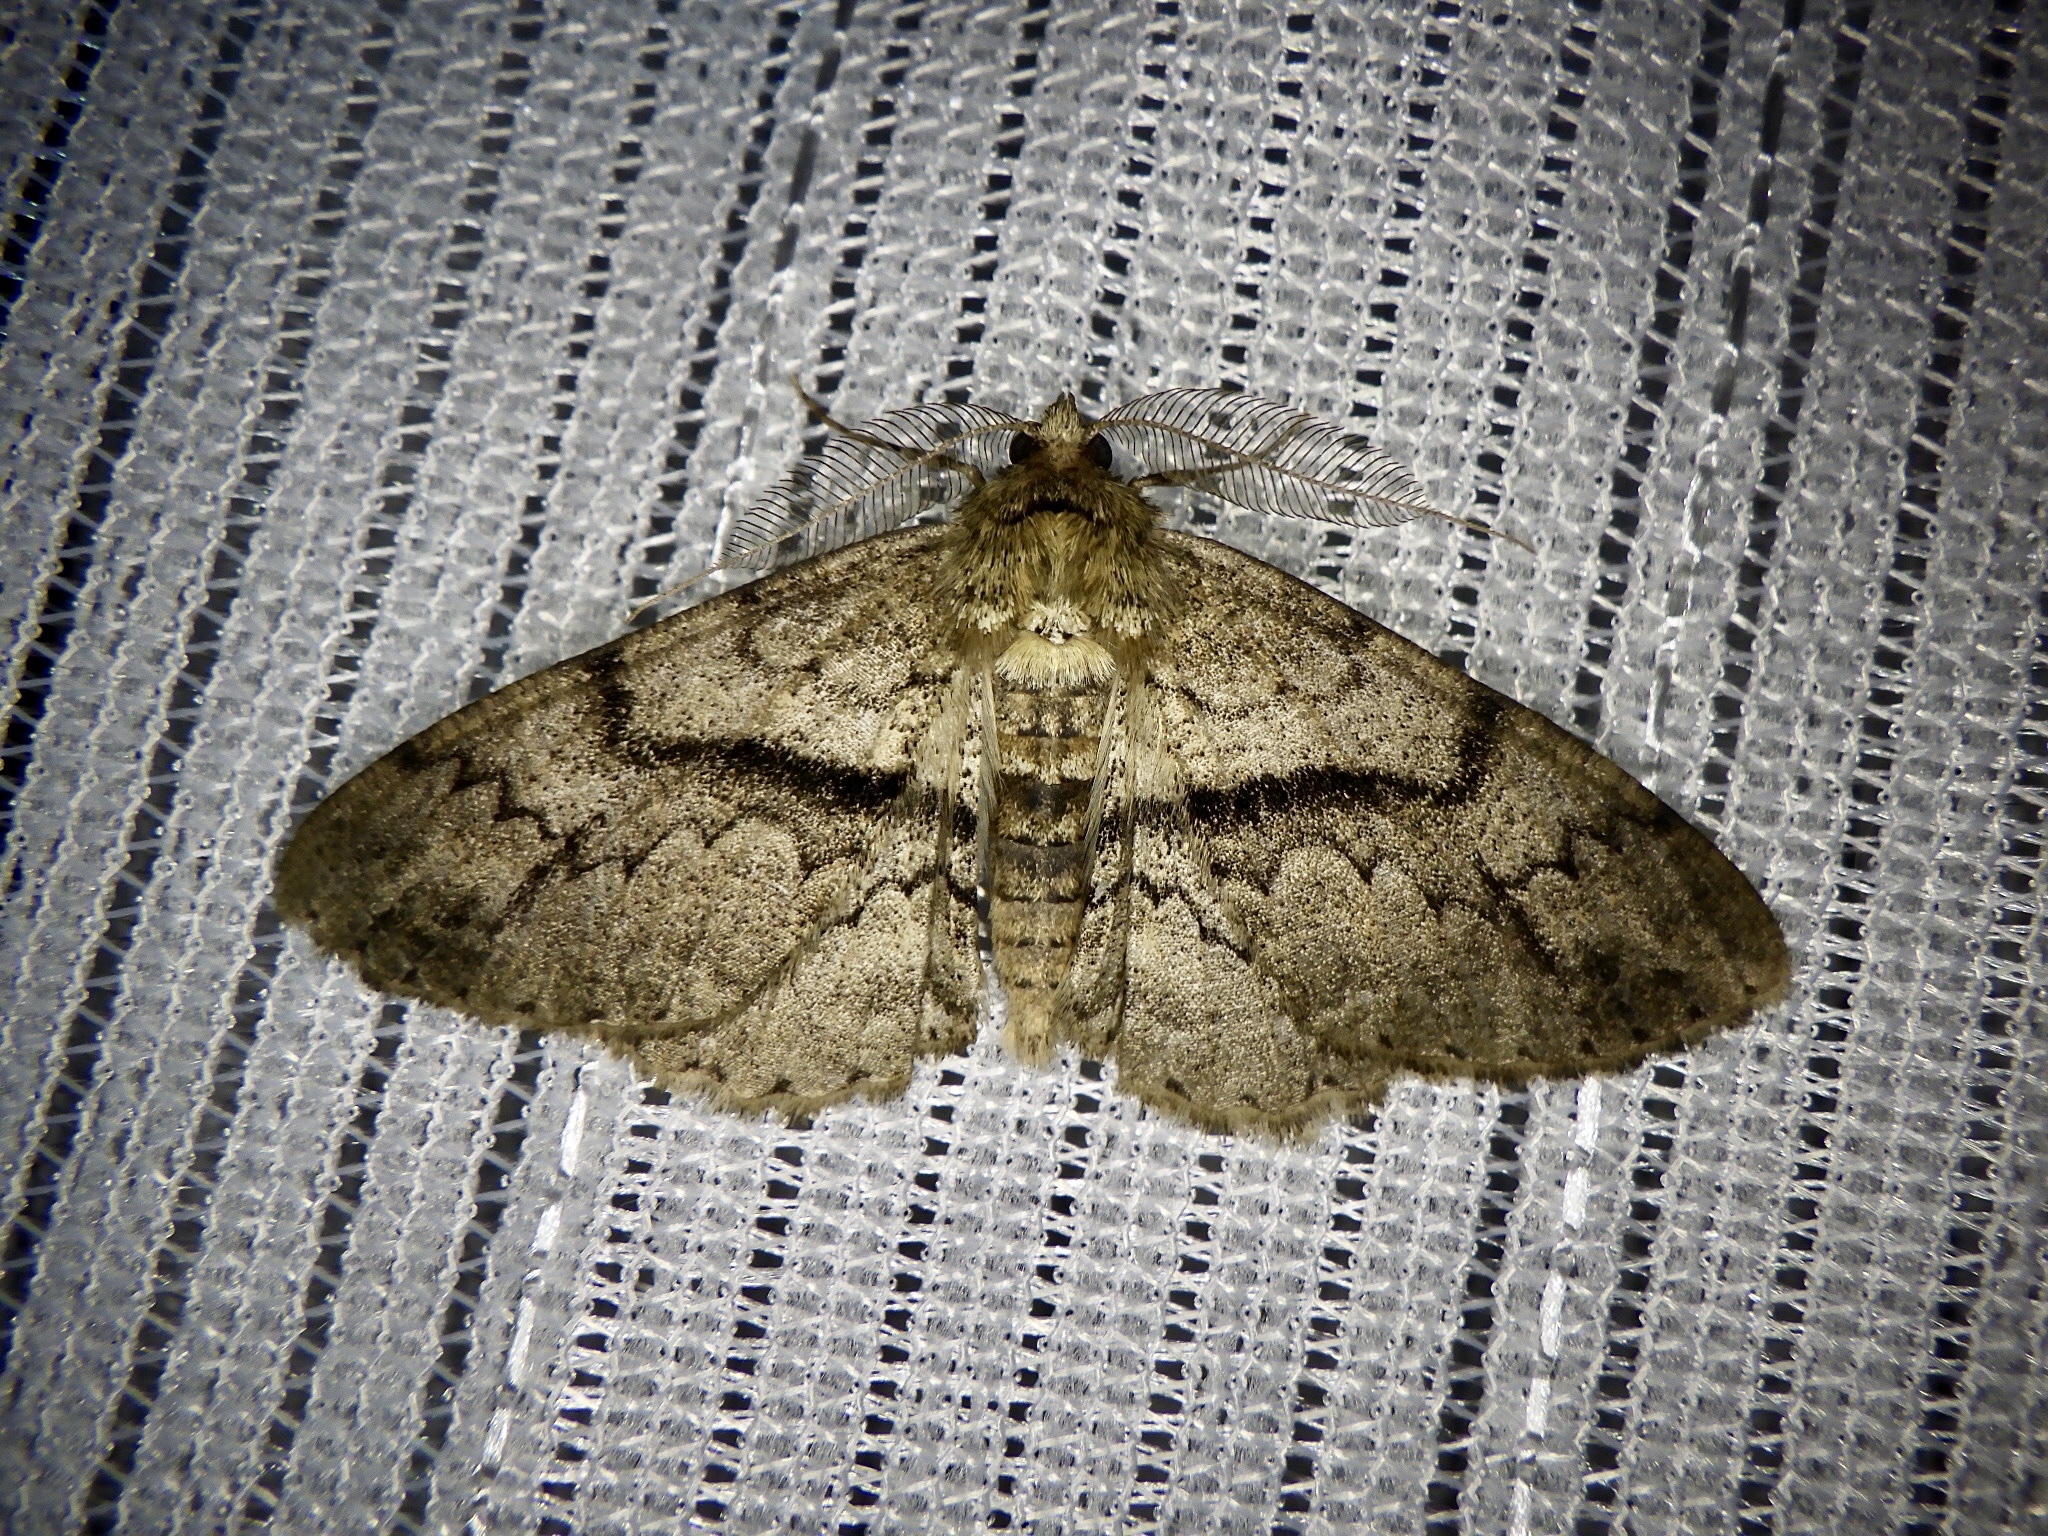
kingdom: Animalia
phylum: Arthropoda
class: Insecta
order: Lepidoptera
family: Geometridae
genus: Cleora
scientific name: Cleora leucophaea
